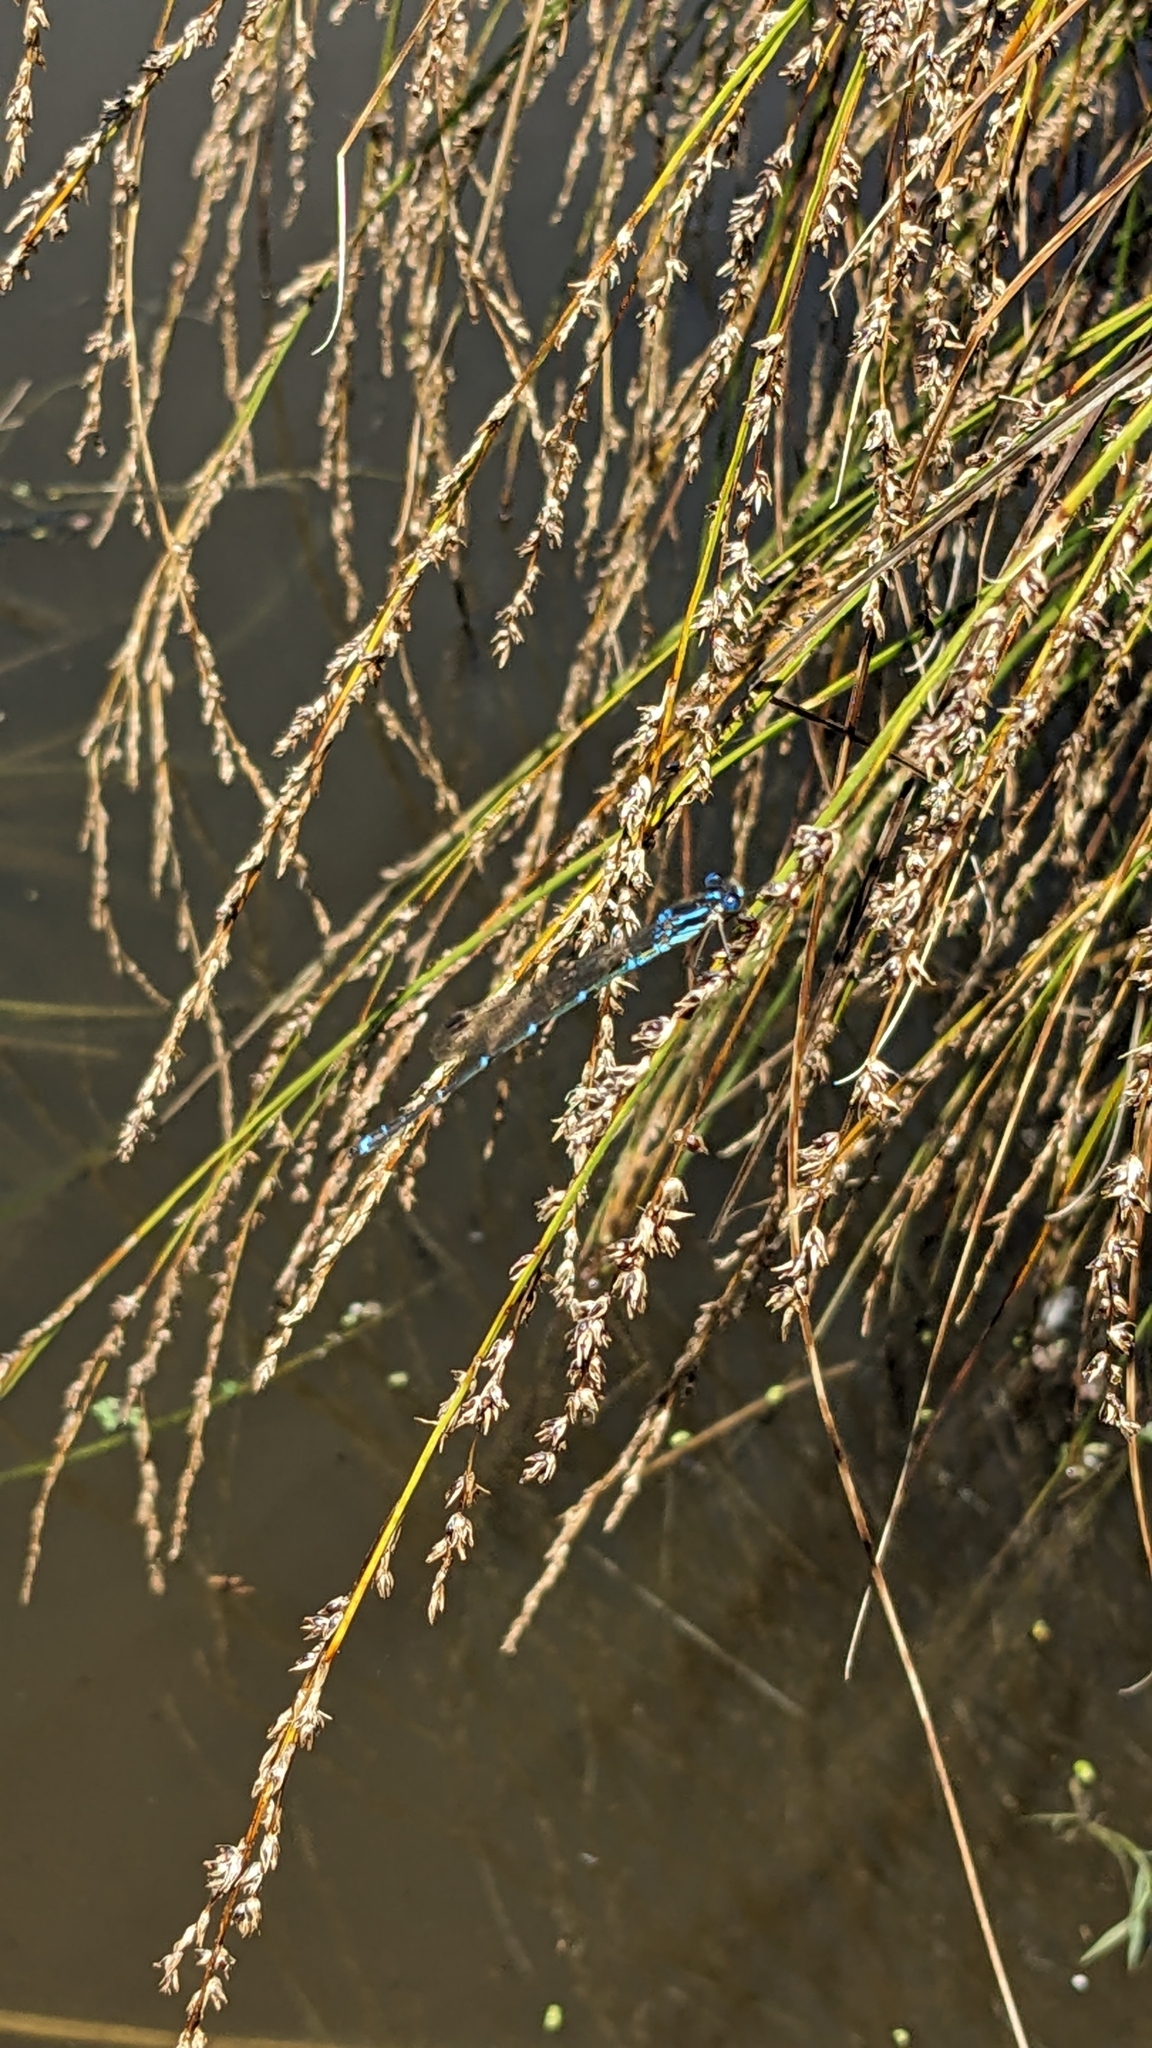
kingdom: Animalia
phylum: Arthropoda
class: Insecta
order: Odonata
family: Lestidae
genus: Austrolestes
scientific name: Austrolestes colensonis
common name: Blue damselfly
